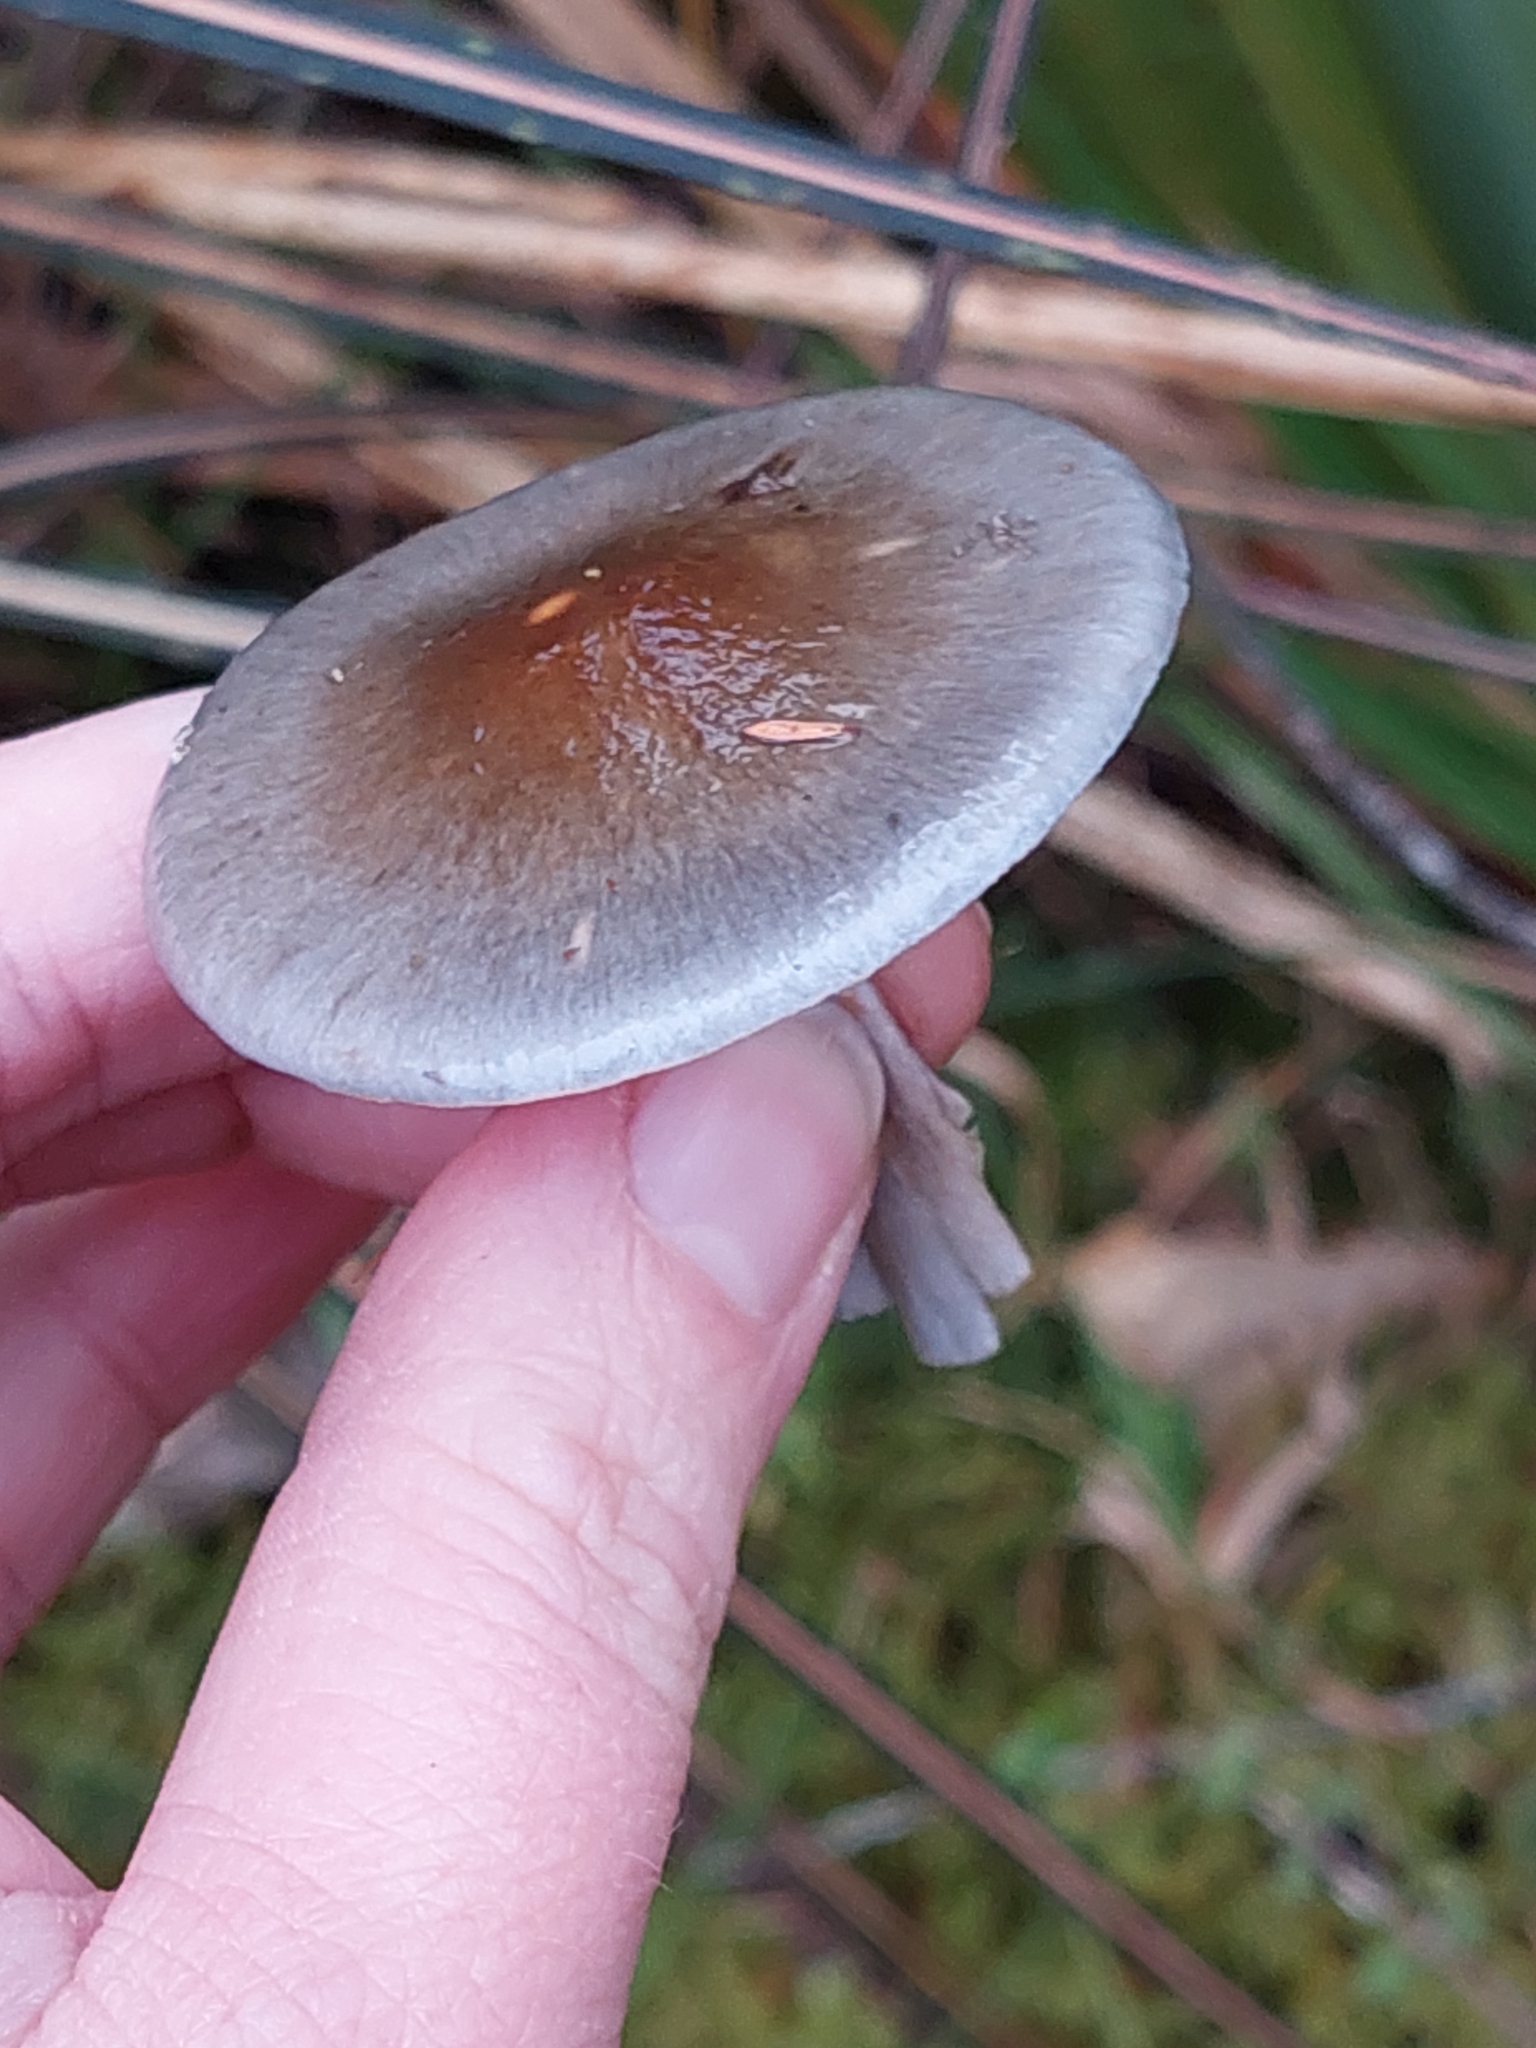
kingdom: Fungi
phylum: Basidiomycota
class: Agaricomycetes
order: Agaricales
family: Cortinariaceae
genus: Cortinarius
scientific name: Cortinarius rotundisporus
